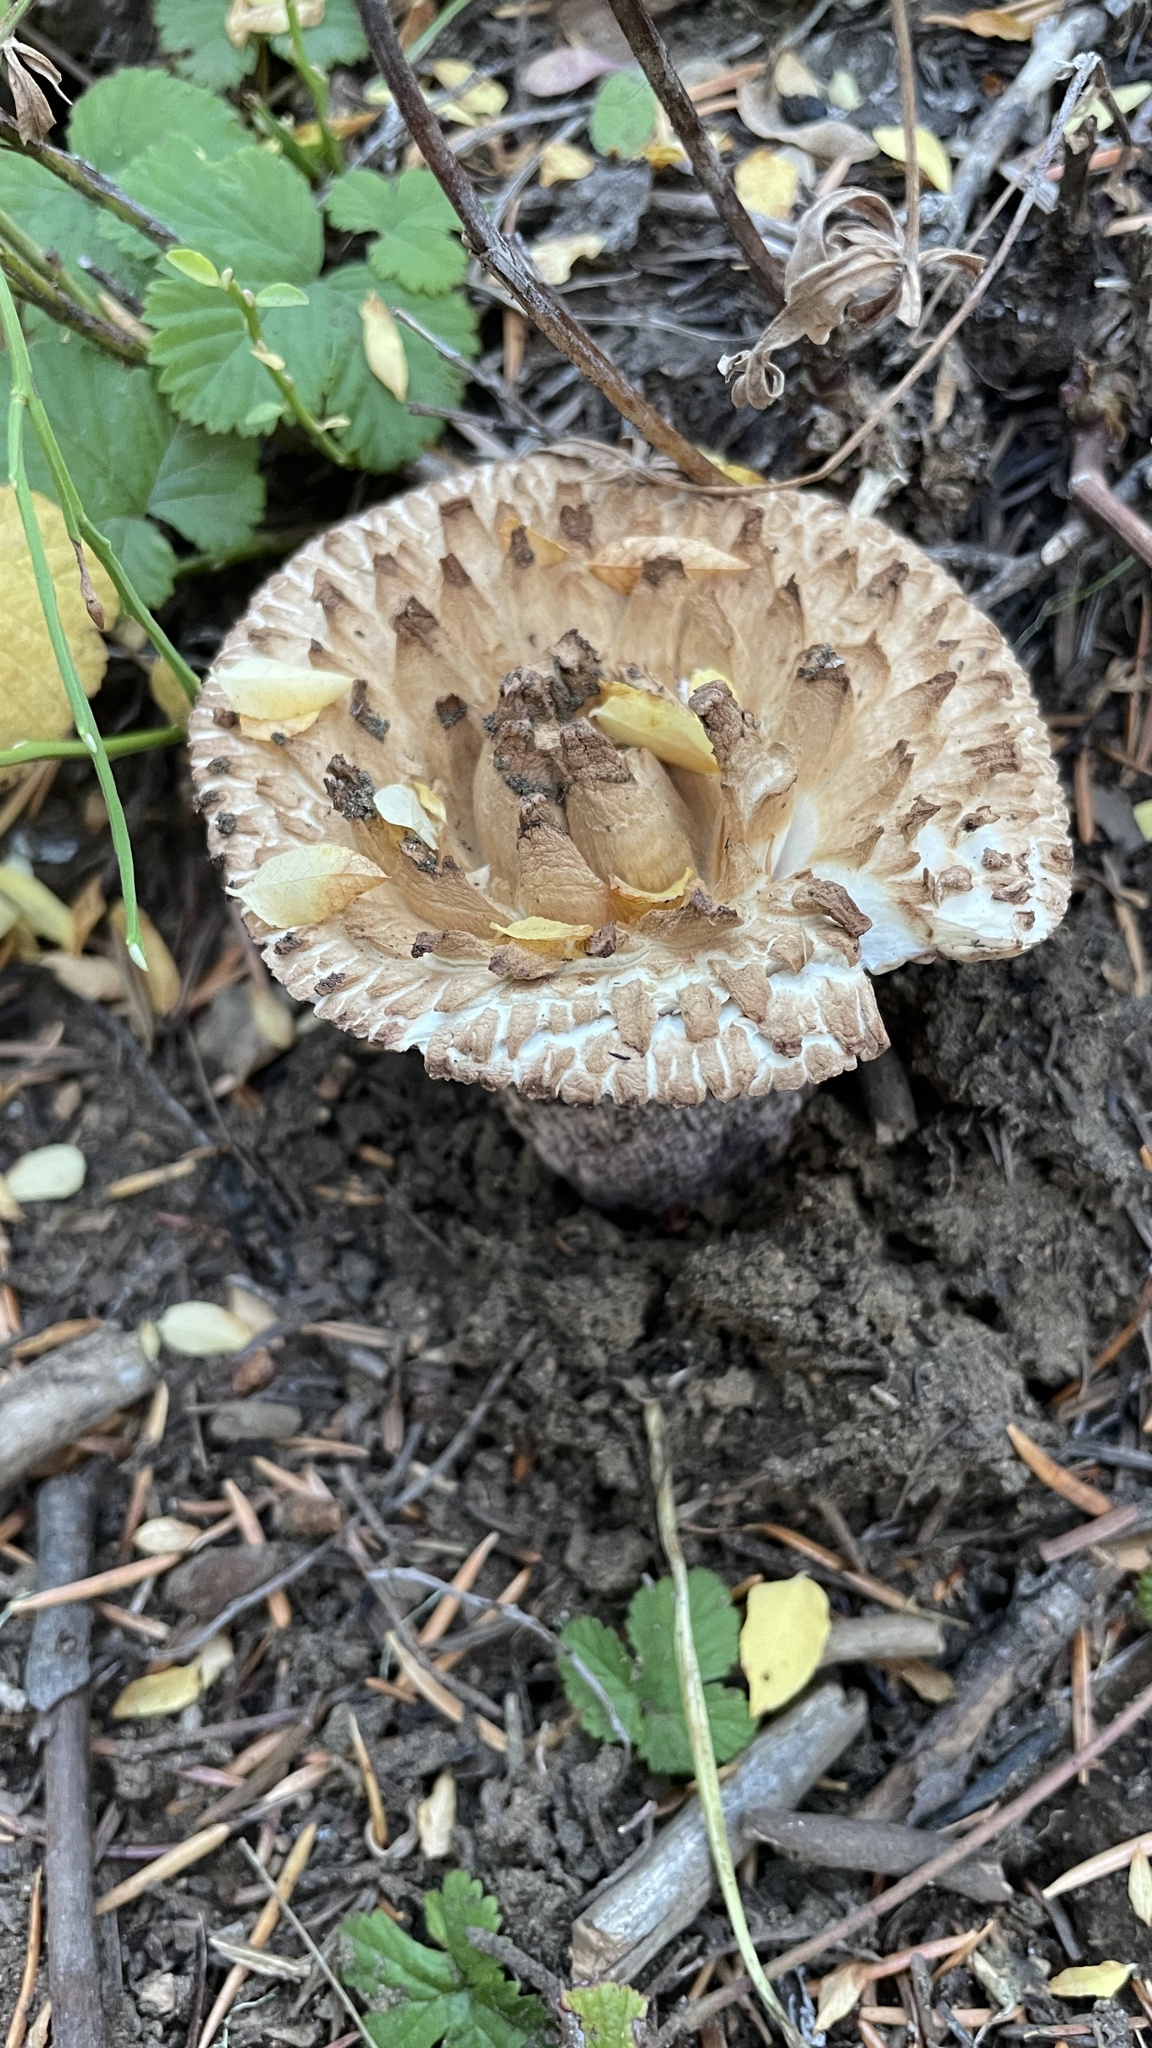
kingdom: Fungi
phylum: Basidiomycota
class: Agaricomycetes
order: Gomphales
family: Gomphaceae
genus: Turbinellus
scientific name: Turbinellus kauffmanii
